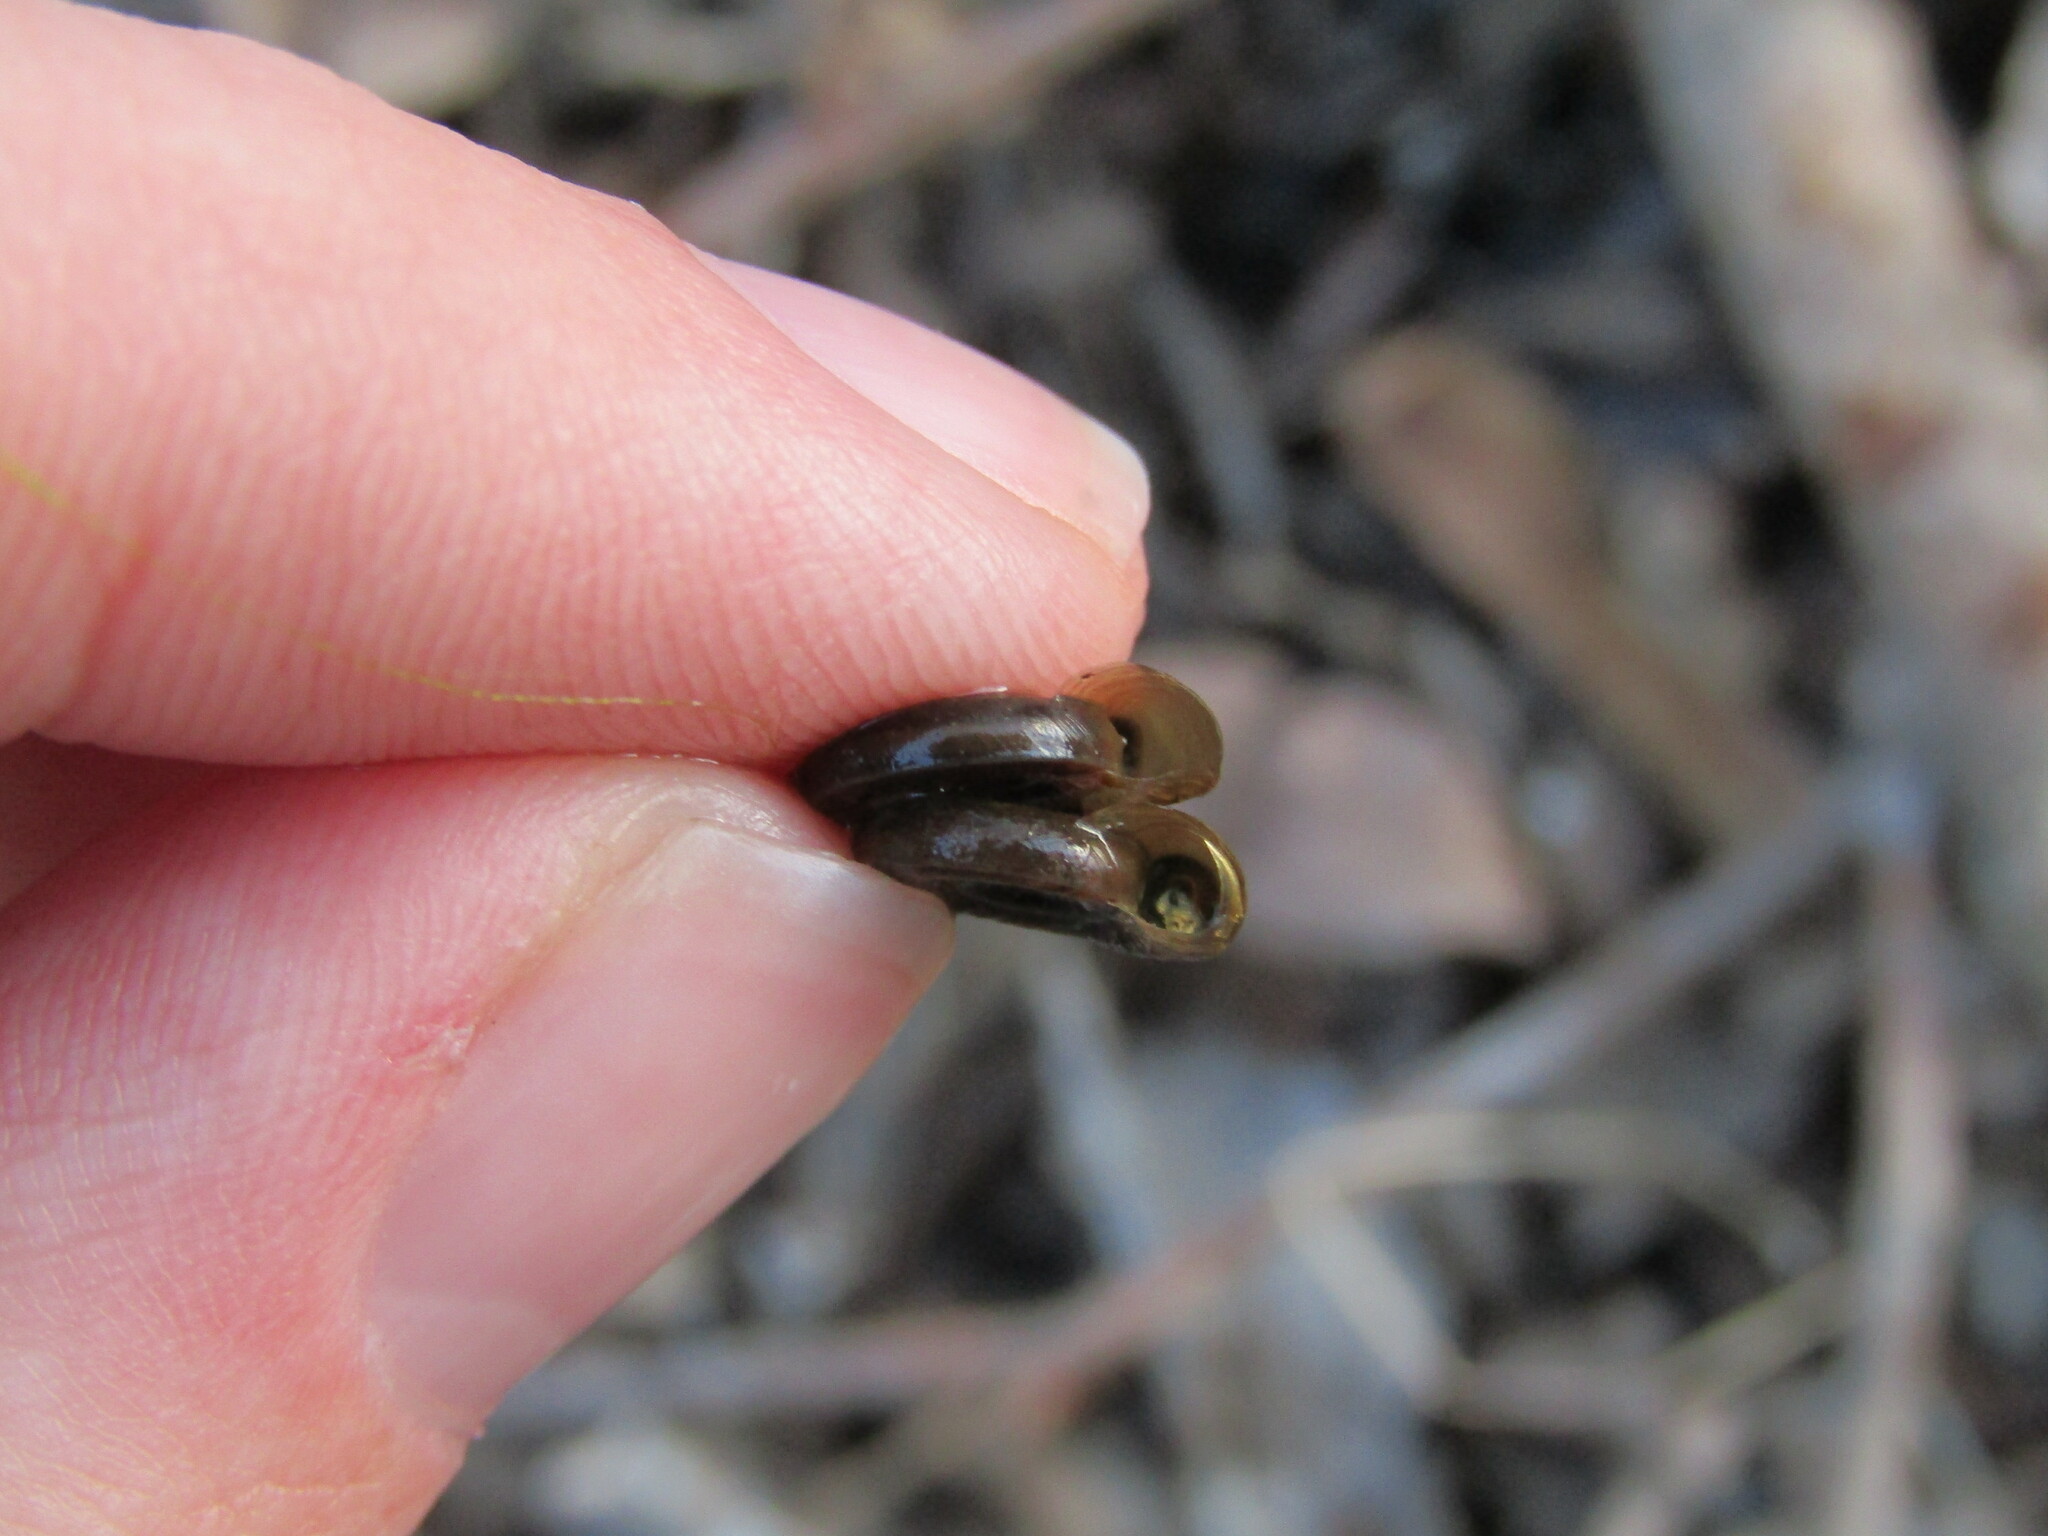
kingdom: Animalia
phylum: Mollusca
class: Gastropoda
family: Planorbidae
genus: Planorbis
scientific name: Planorbis planorbis
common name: Margined ramshorn
